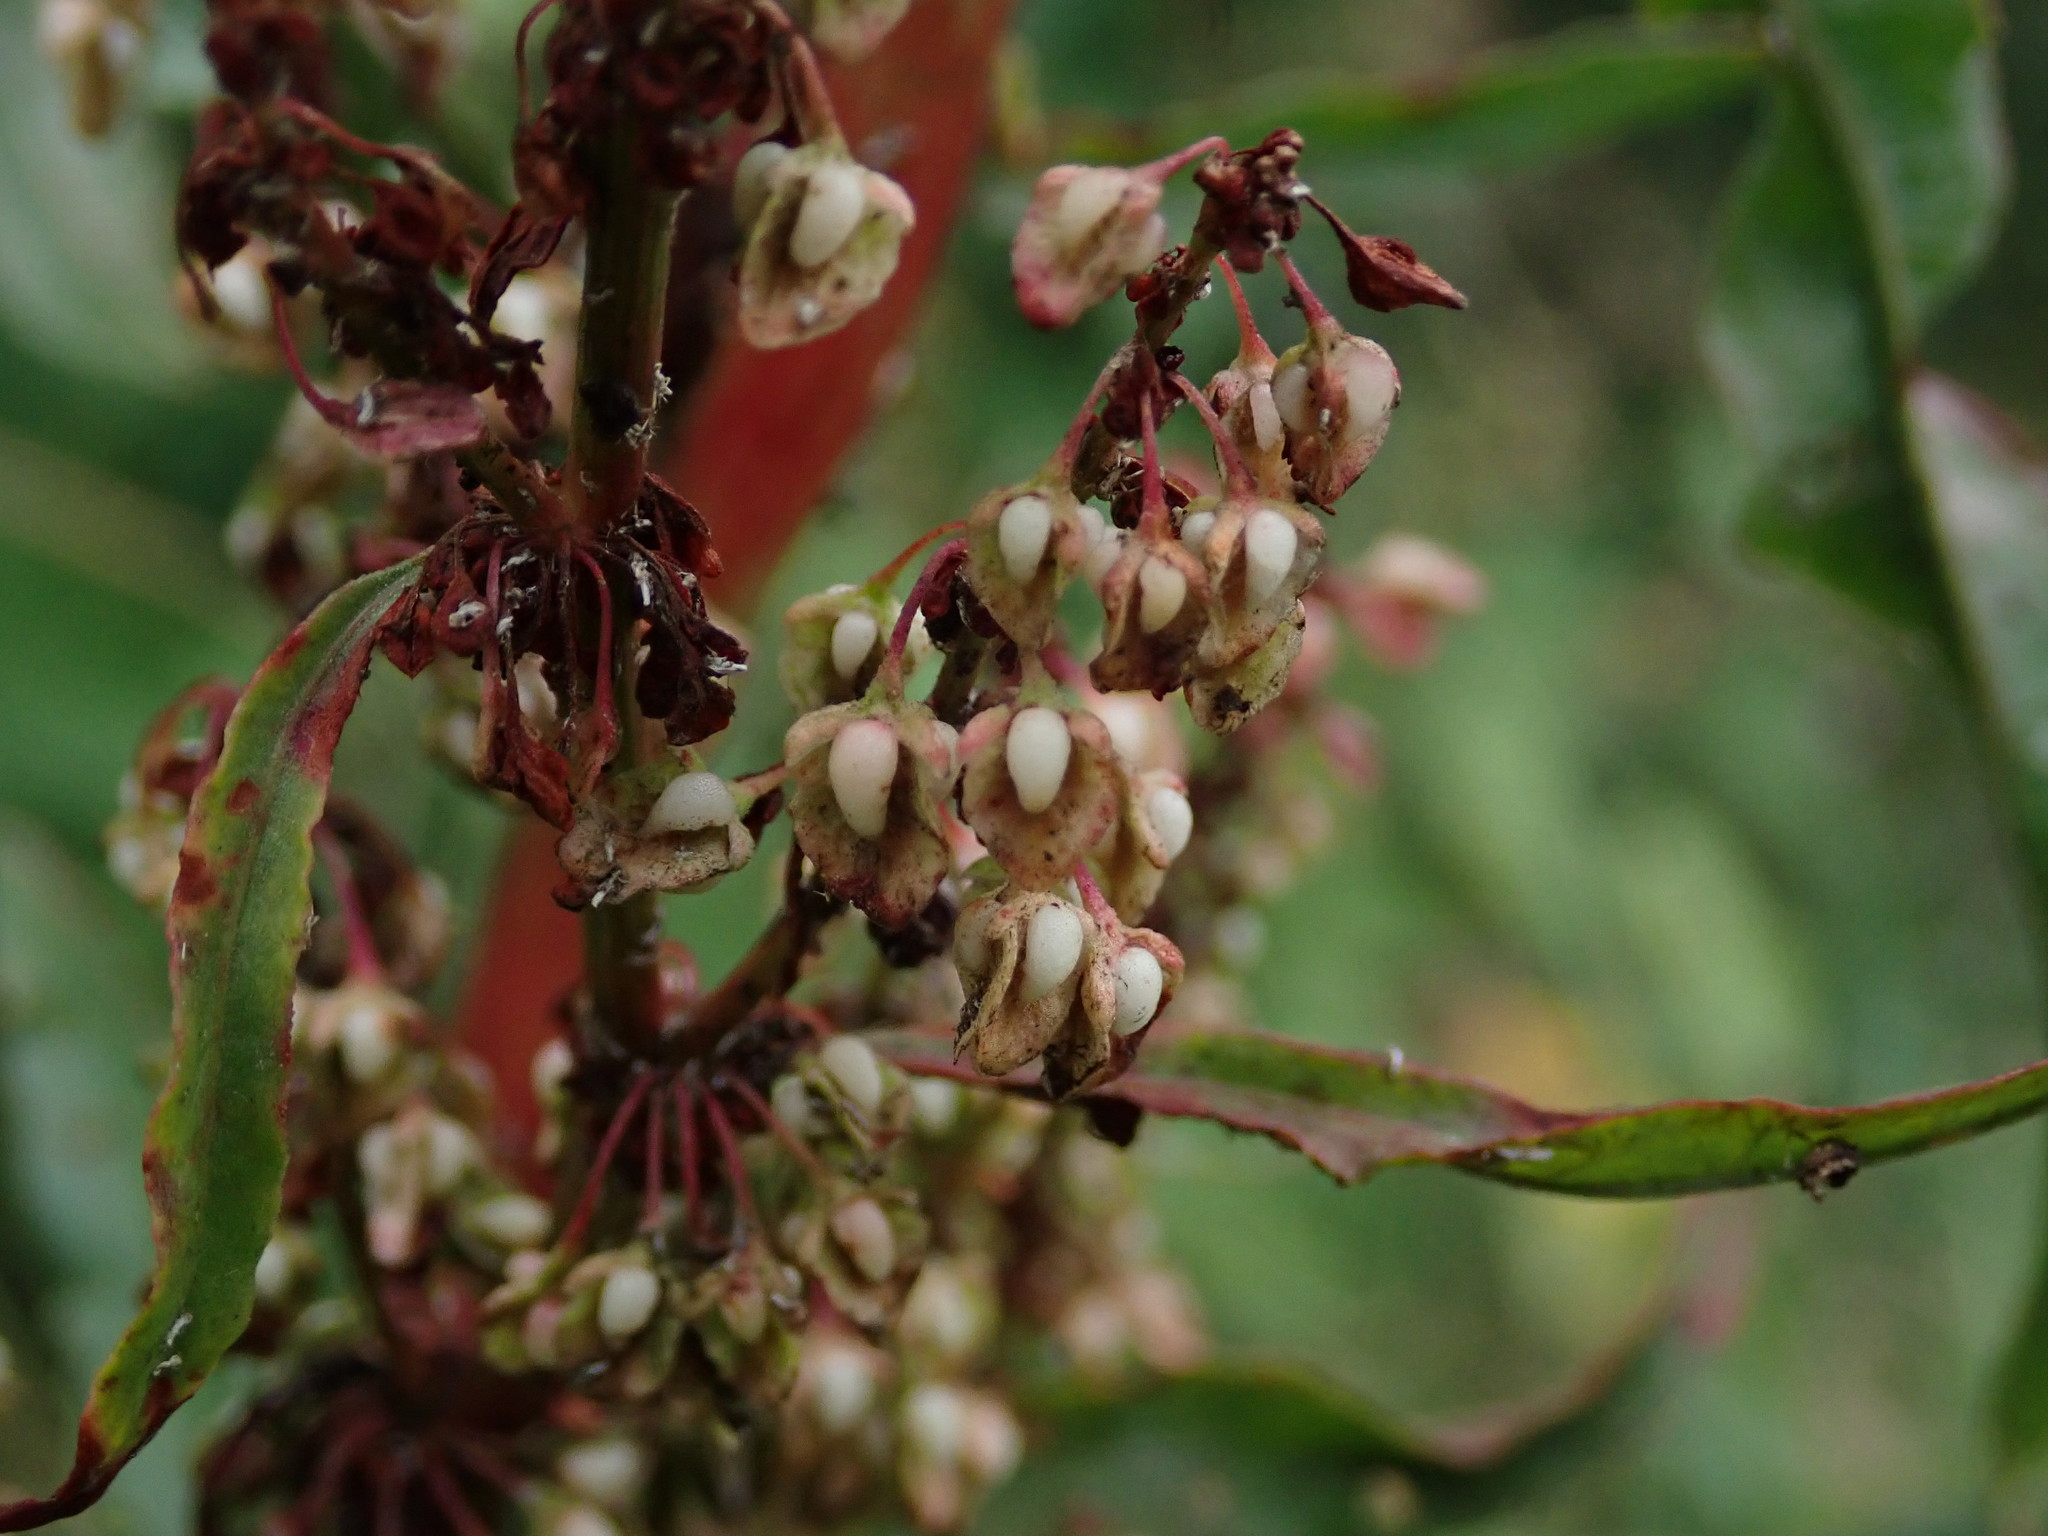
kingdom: Plantae
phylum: Tracheophyta
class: Magnoliopsida
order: Caryophyllales
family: Polygonaceae
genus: Rumex
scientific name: Rumex crispus
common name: Curled dock
